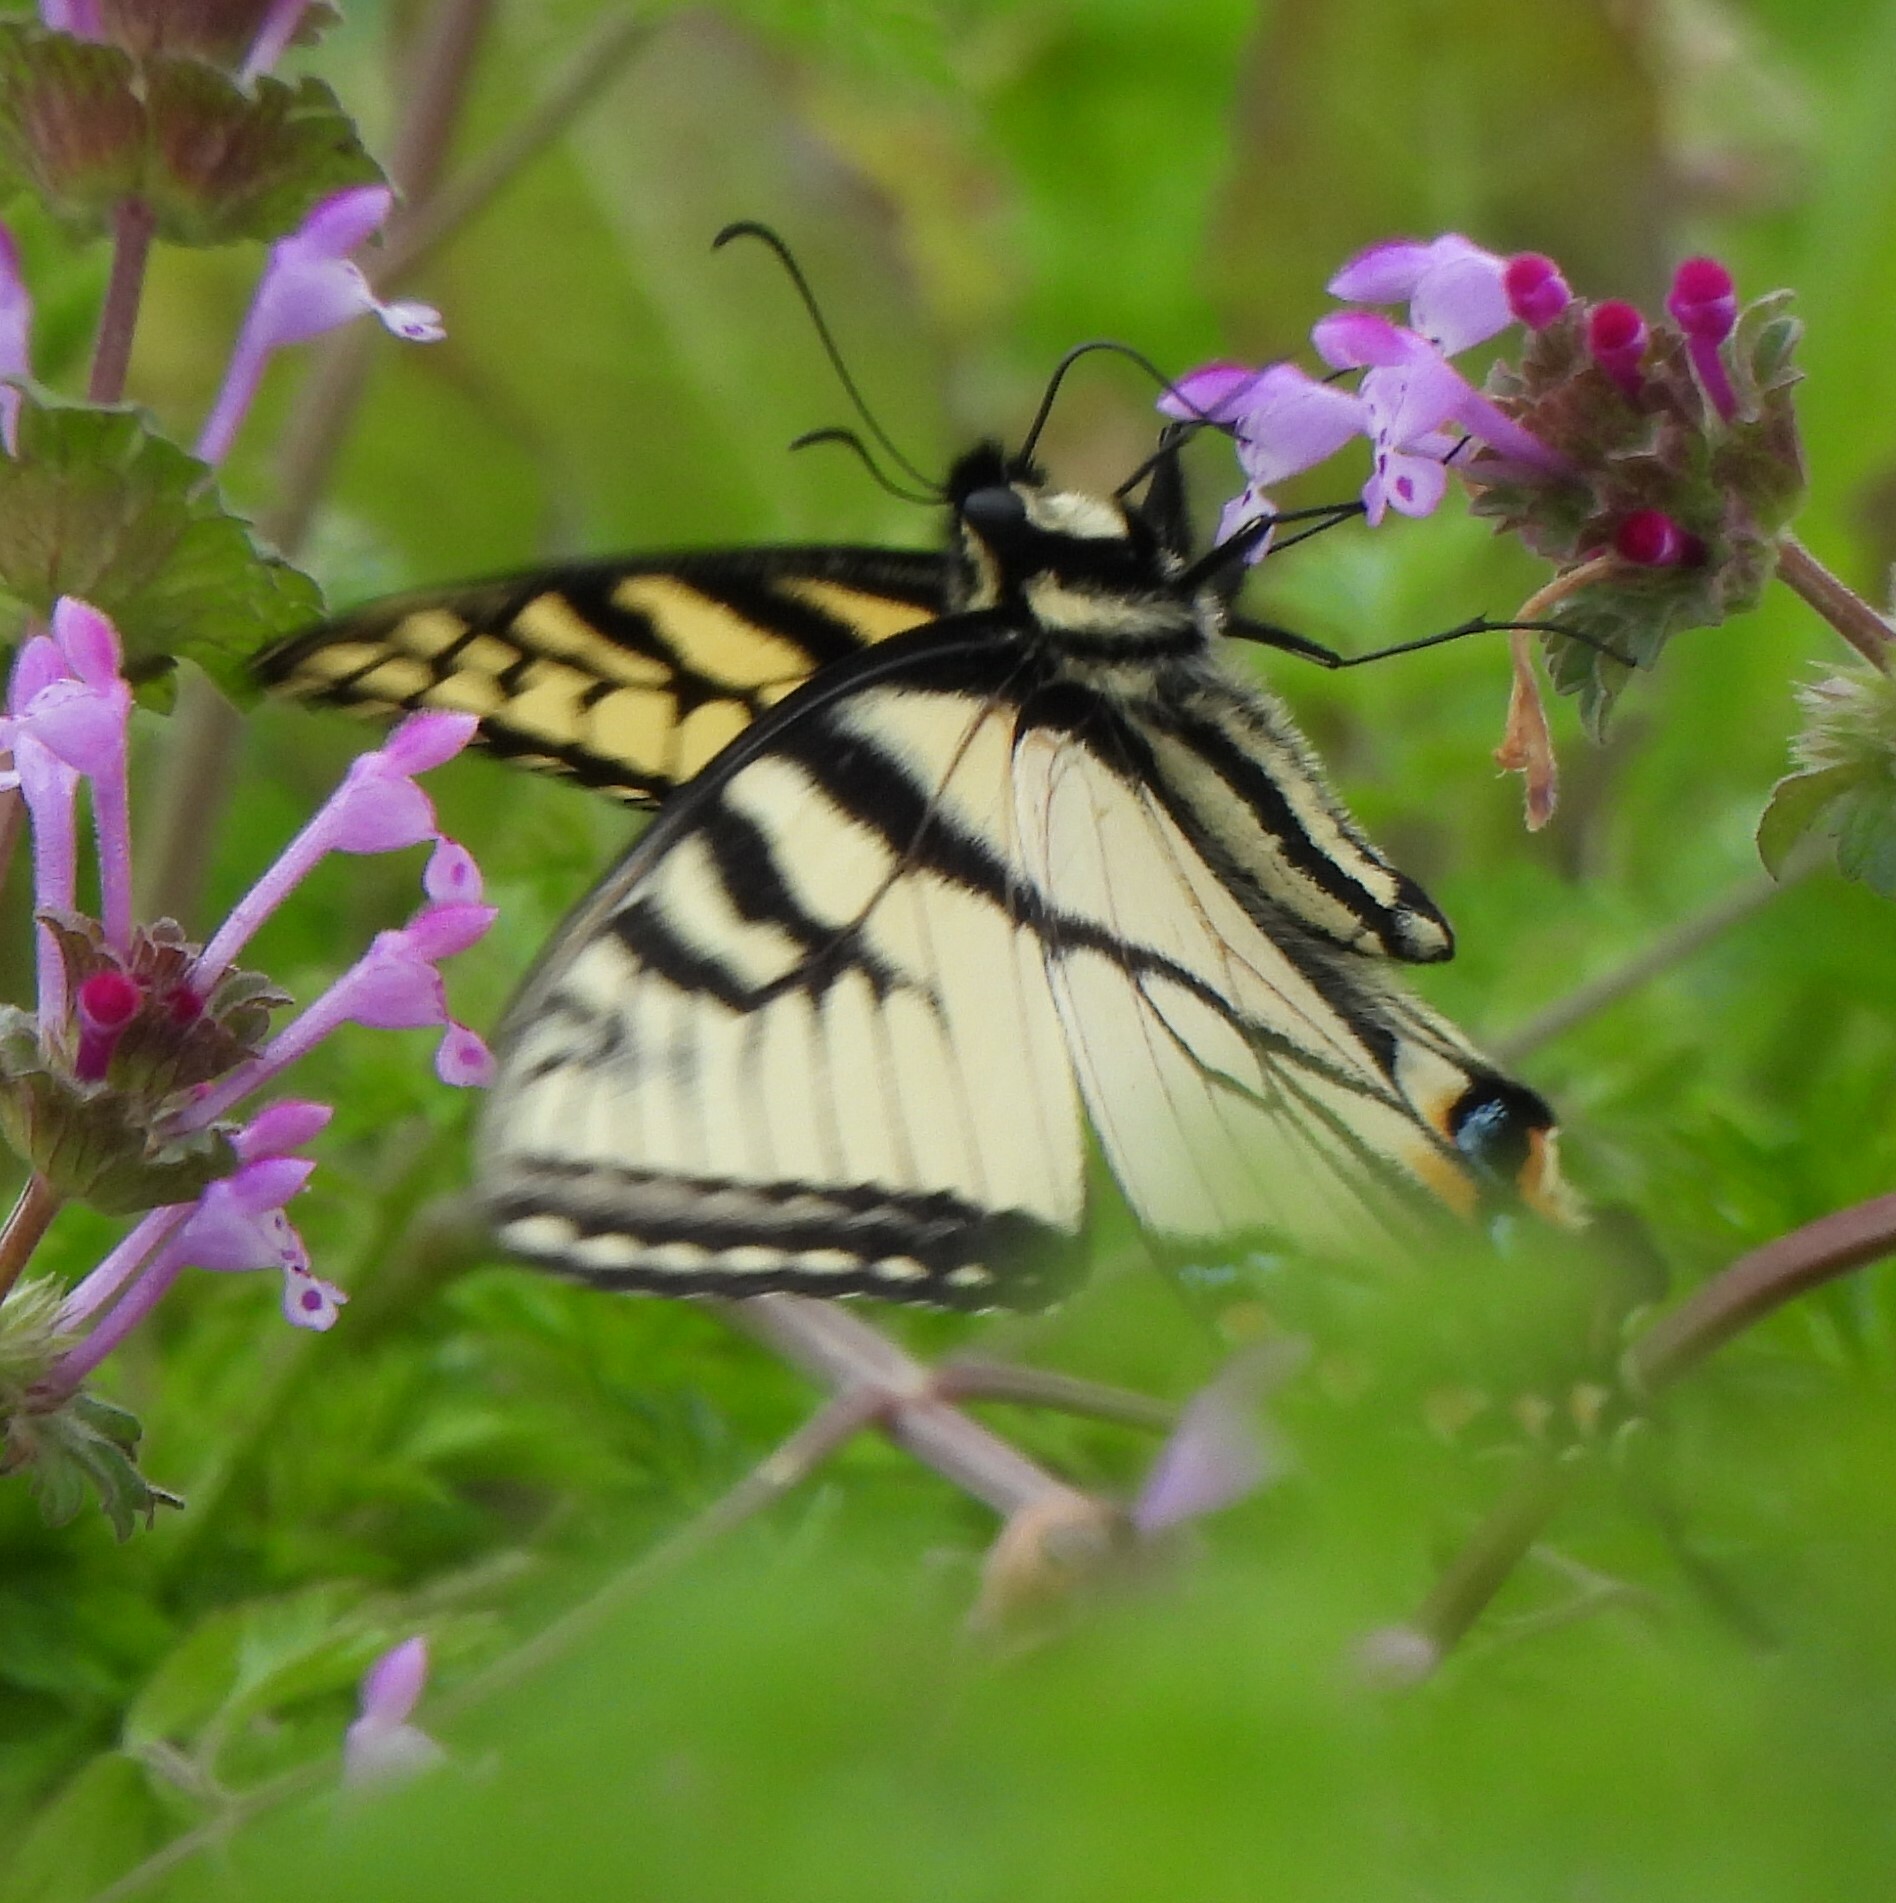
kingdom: Animalia
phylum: Arthropoda
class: Insecta
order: Lepidoptera
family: Papilionidae
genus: Papilio
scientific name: Papilio glaucus
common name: Tiger swallowtail
